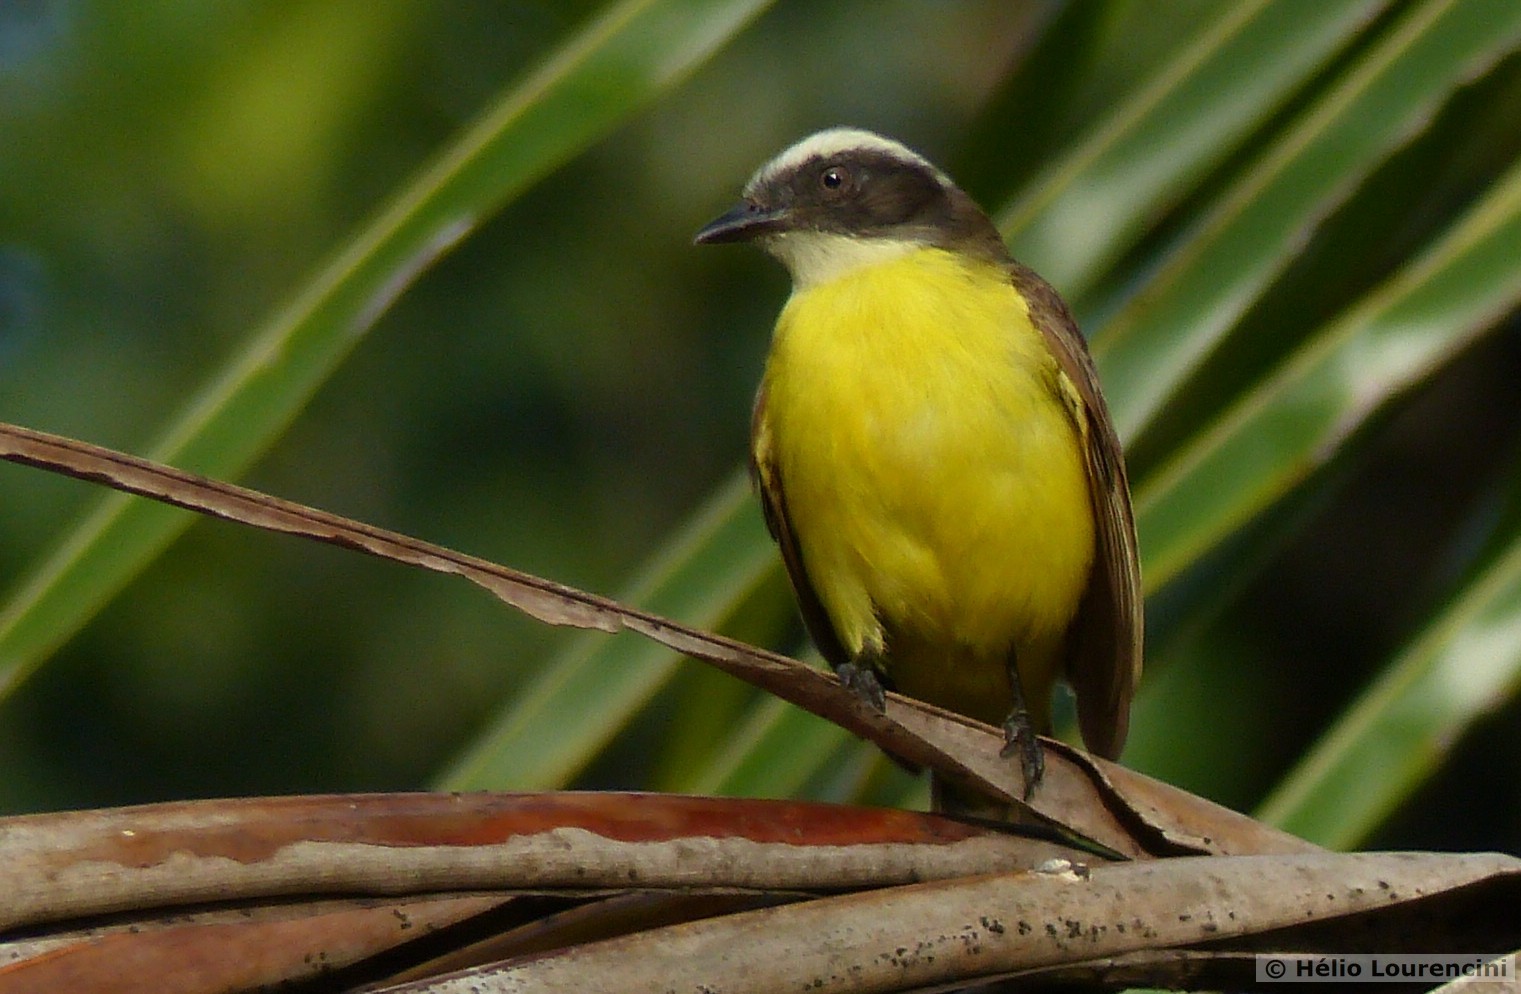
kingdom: Animalia
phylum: Chordata
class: Aves
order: Passeriformes
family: Tyrannidae
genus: Myiozetetes
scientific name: Myiozetetes similis
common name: Social flycatcher
